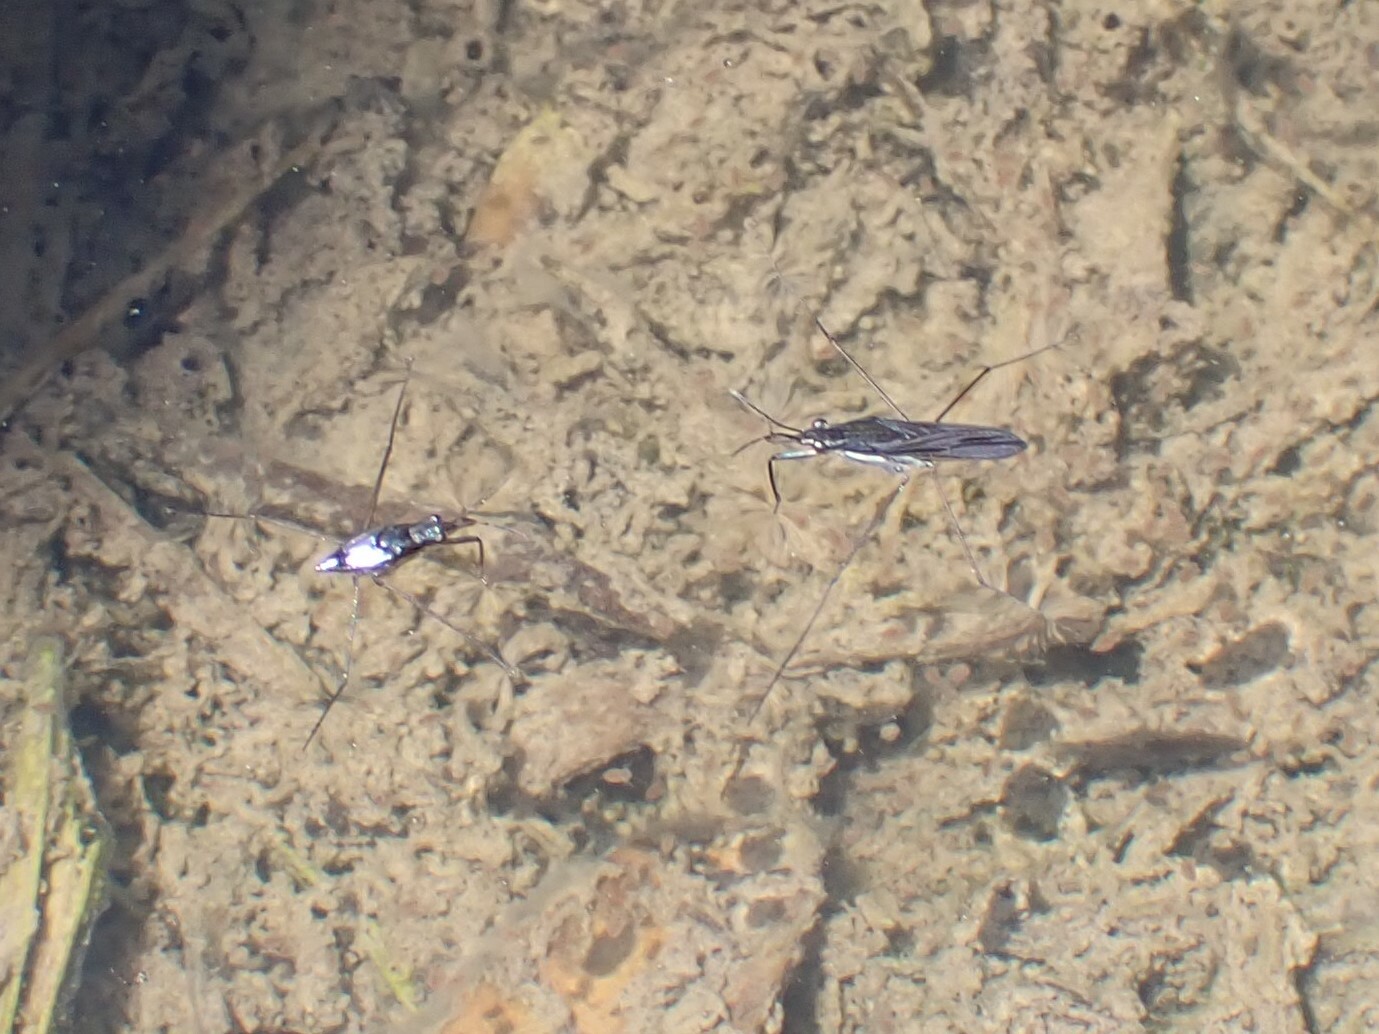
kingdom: Animalia
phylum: Arthropoda
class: Insecta
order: Hemiptera
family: Gerridae
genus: Gerris
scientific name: Gerris
